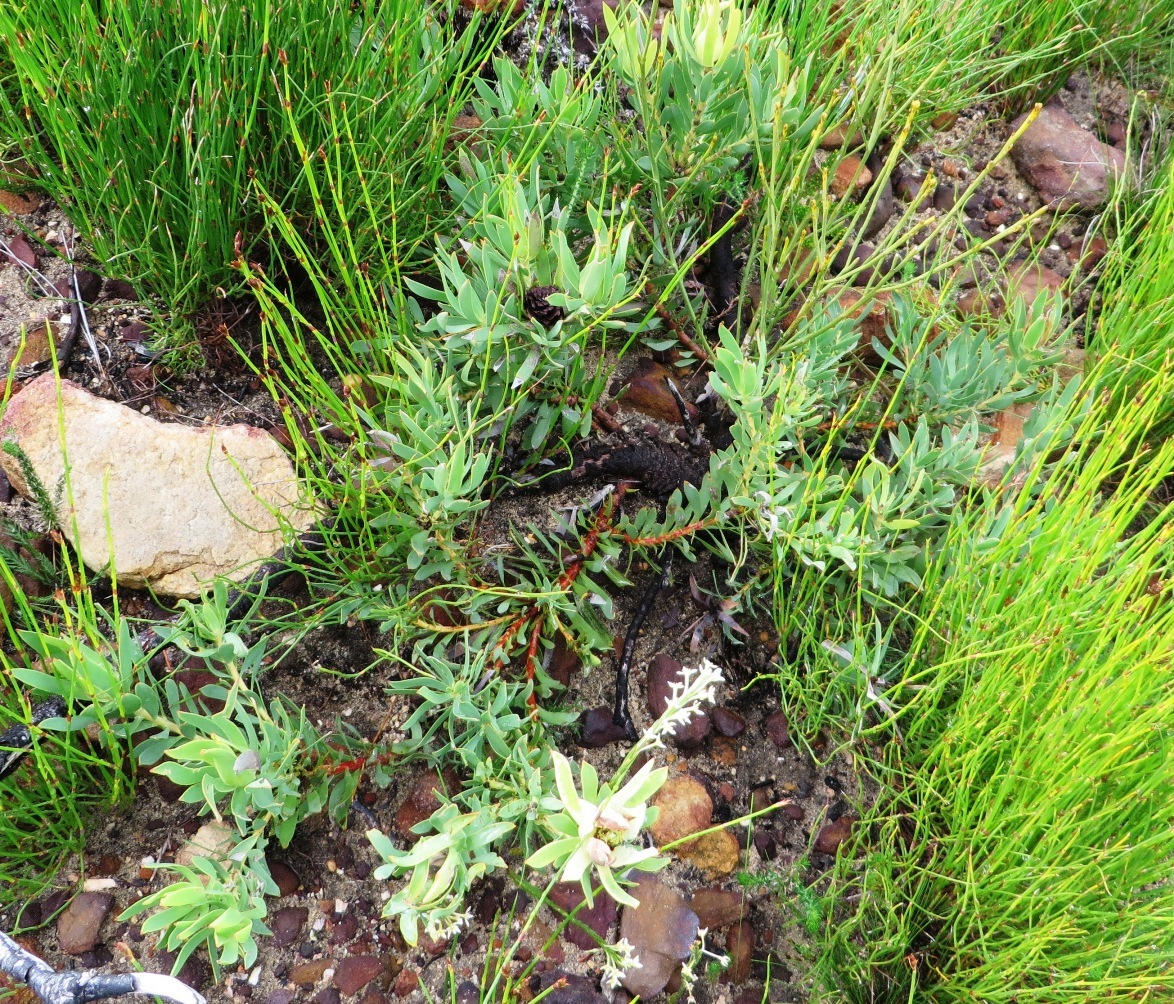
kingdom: Plantae
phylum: Tracheophyta
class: Magnoliopsida
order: Proteales
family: Proteaceae
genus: Leucadendron
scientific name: Leucadendron salignum
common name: Common sunshine conebush
